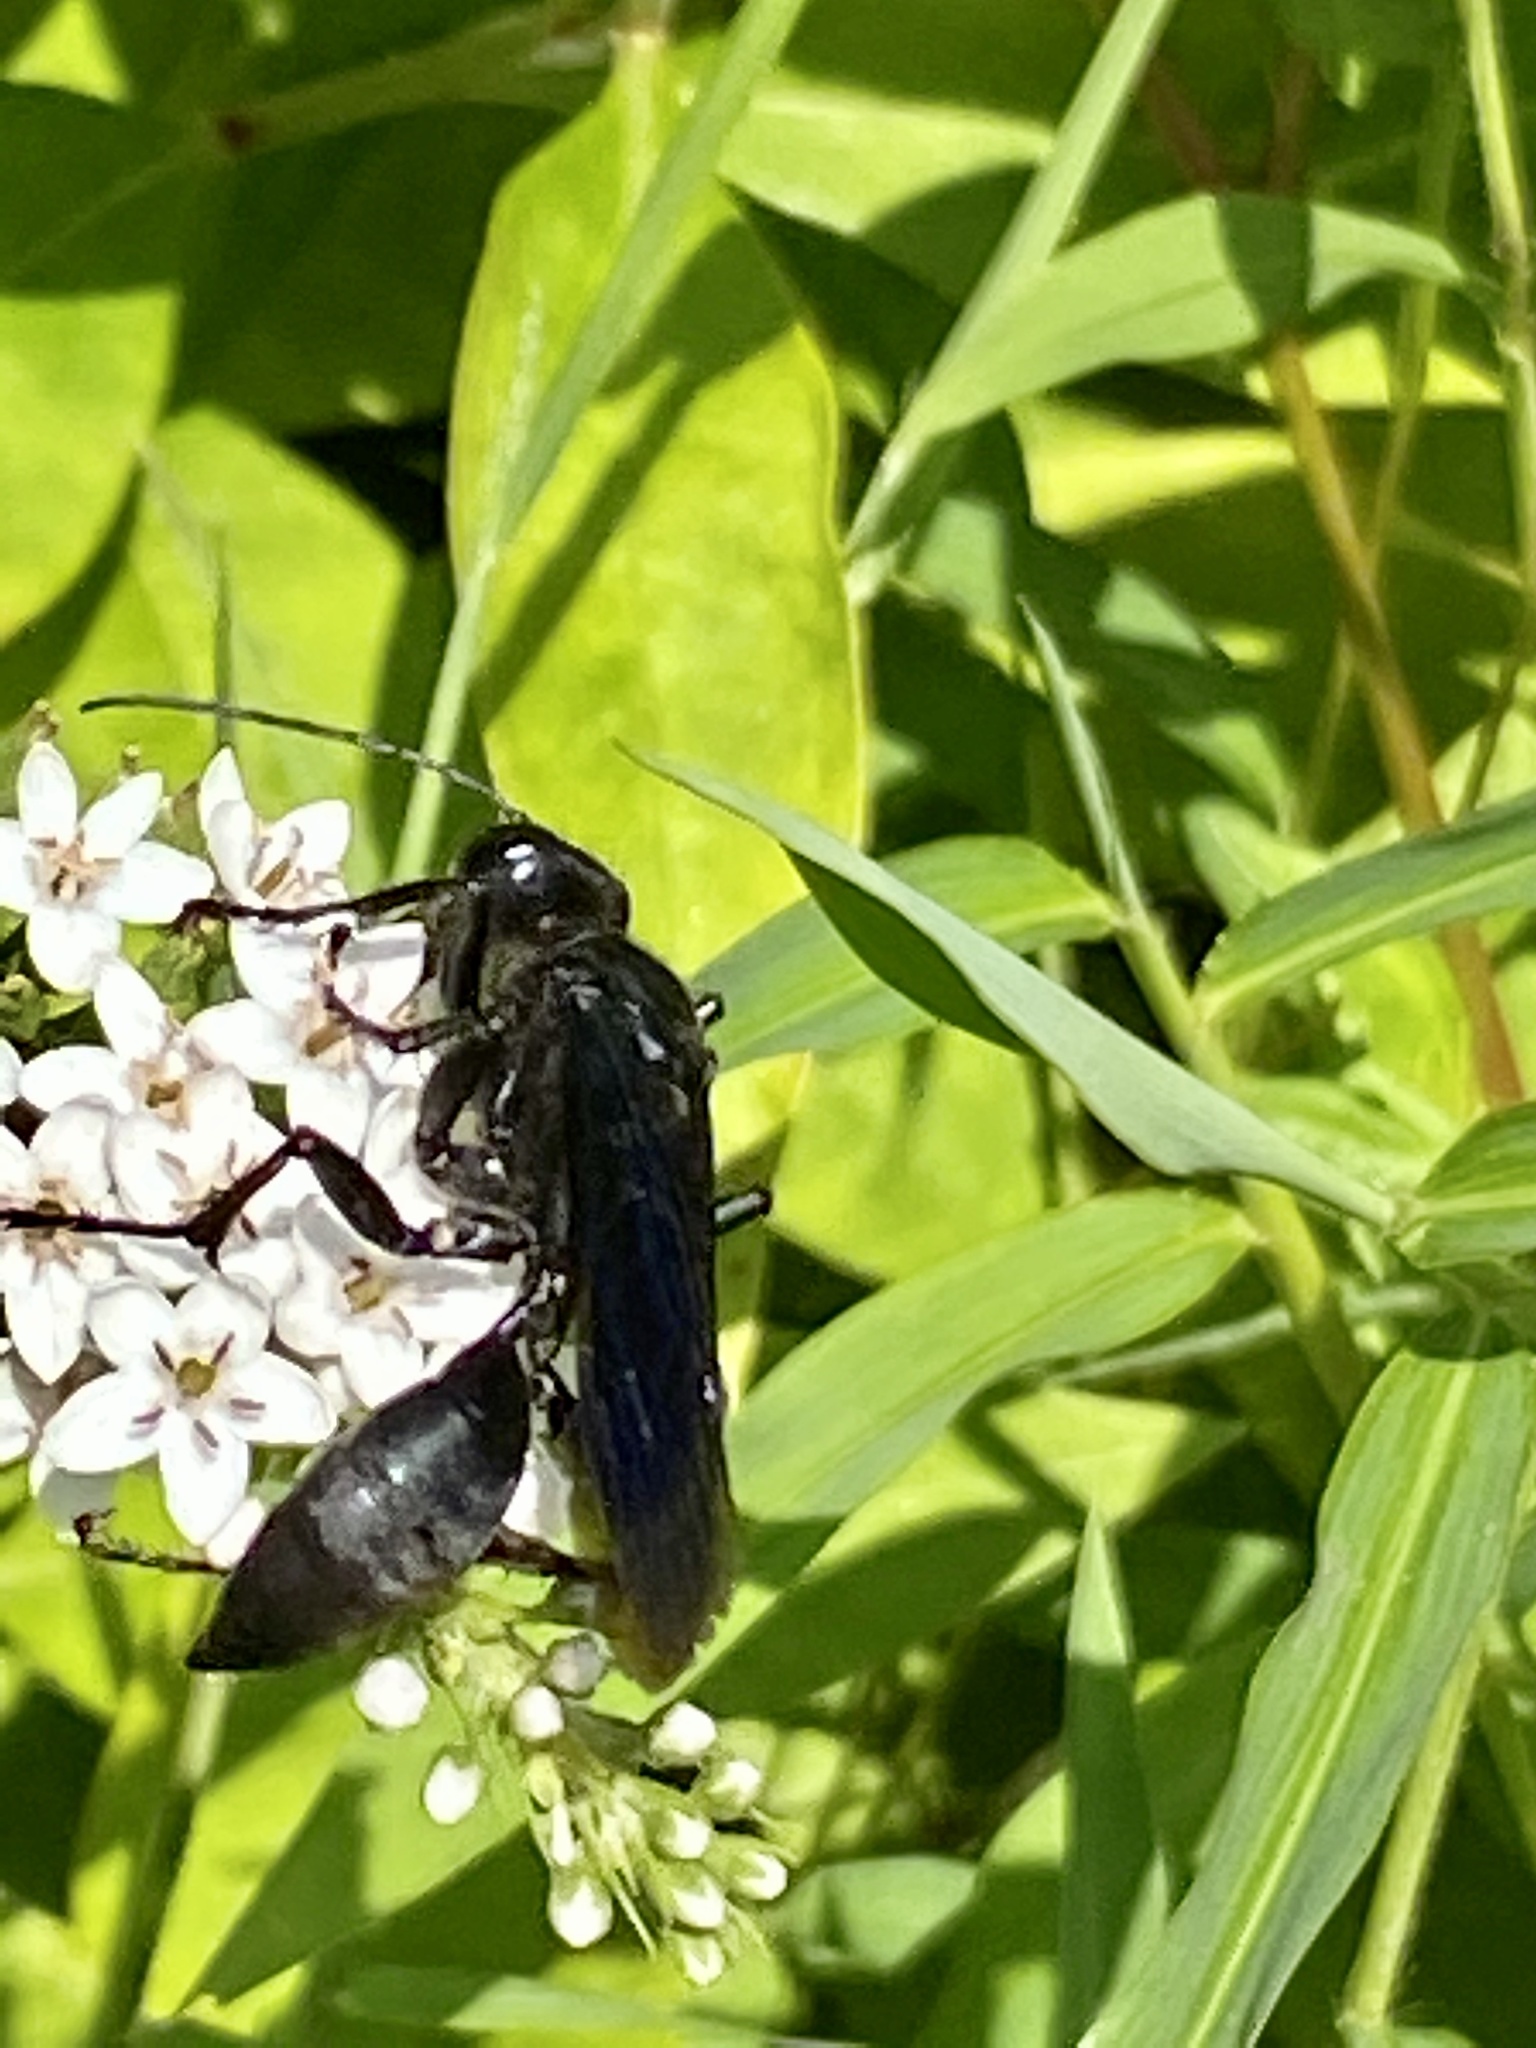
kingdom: Animalia
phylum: Arthropoda
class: Insecta
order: Hymenoptera
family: Sphecidae
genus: Sphex
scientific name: Sphex pensylvanicus
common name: Great black digger wasp
